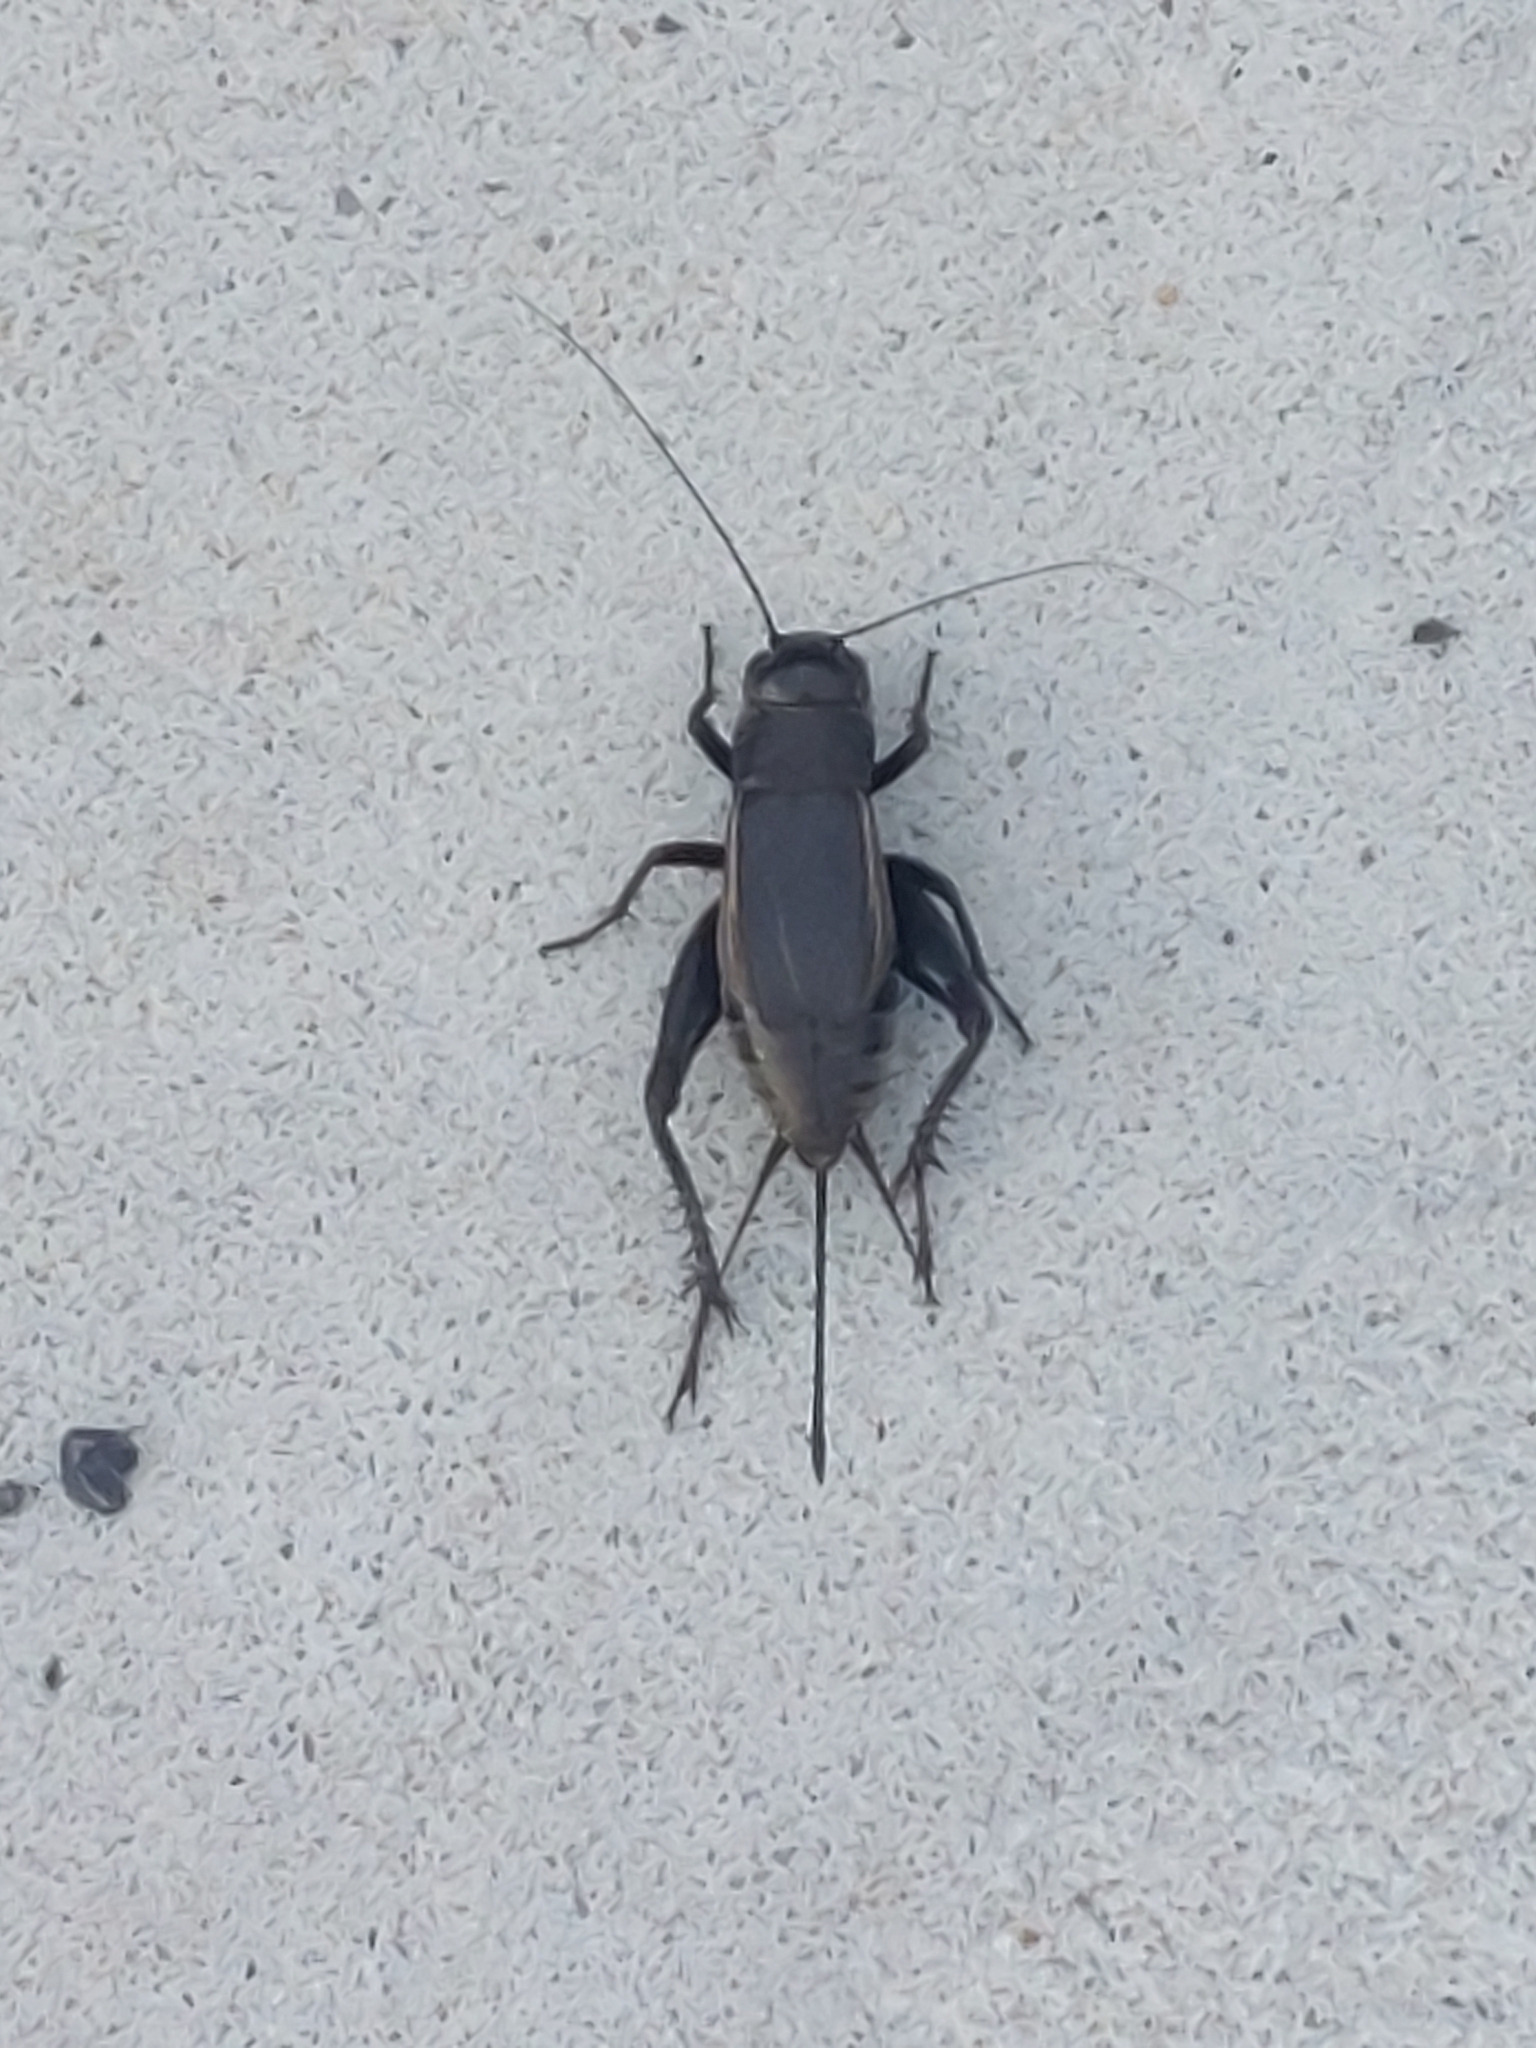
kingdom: Animalia
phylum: Arthropoda
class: Insecta
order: Orthoptera
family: Gryllidae
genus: Gryllus
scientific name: Gryllus pennsylvanicus
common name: Fall field cricket
